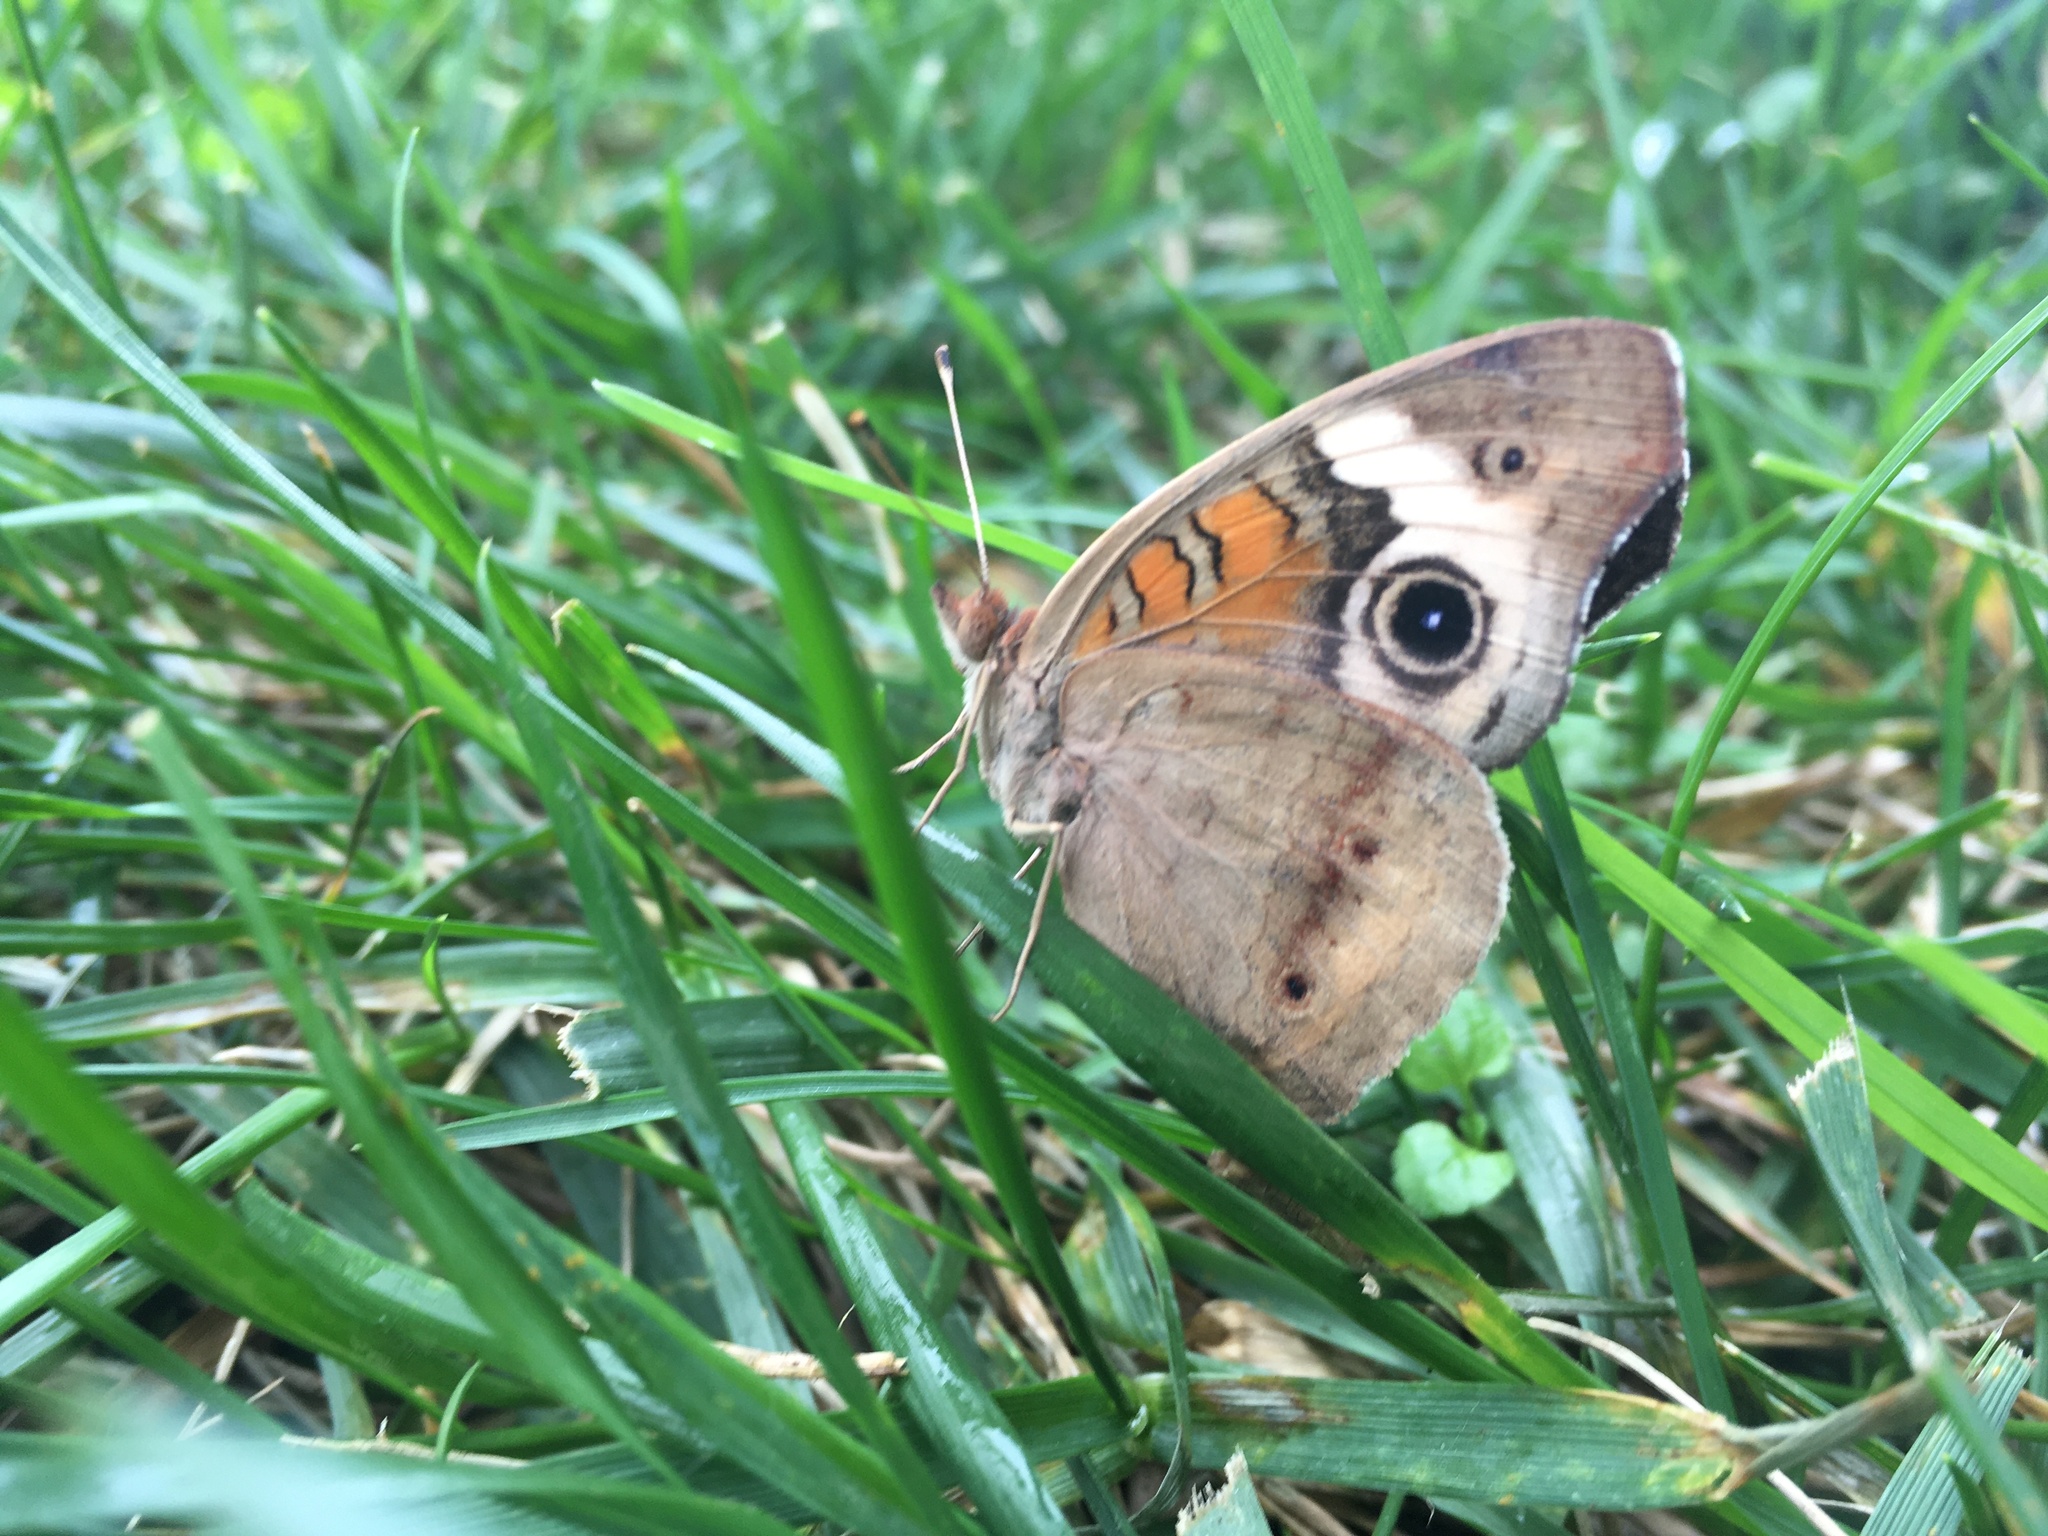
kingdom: Animalia
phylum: Arthropoda
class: Insecta
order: Lepidoptera
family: Nymphalidae
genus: Junonia
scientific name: Junonia coenia
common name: Common buckeye
